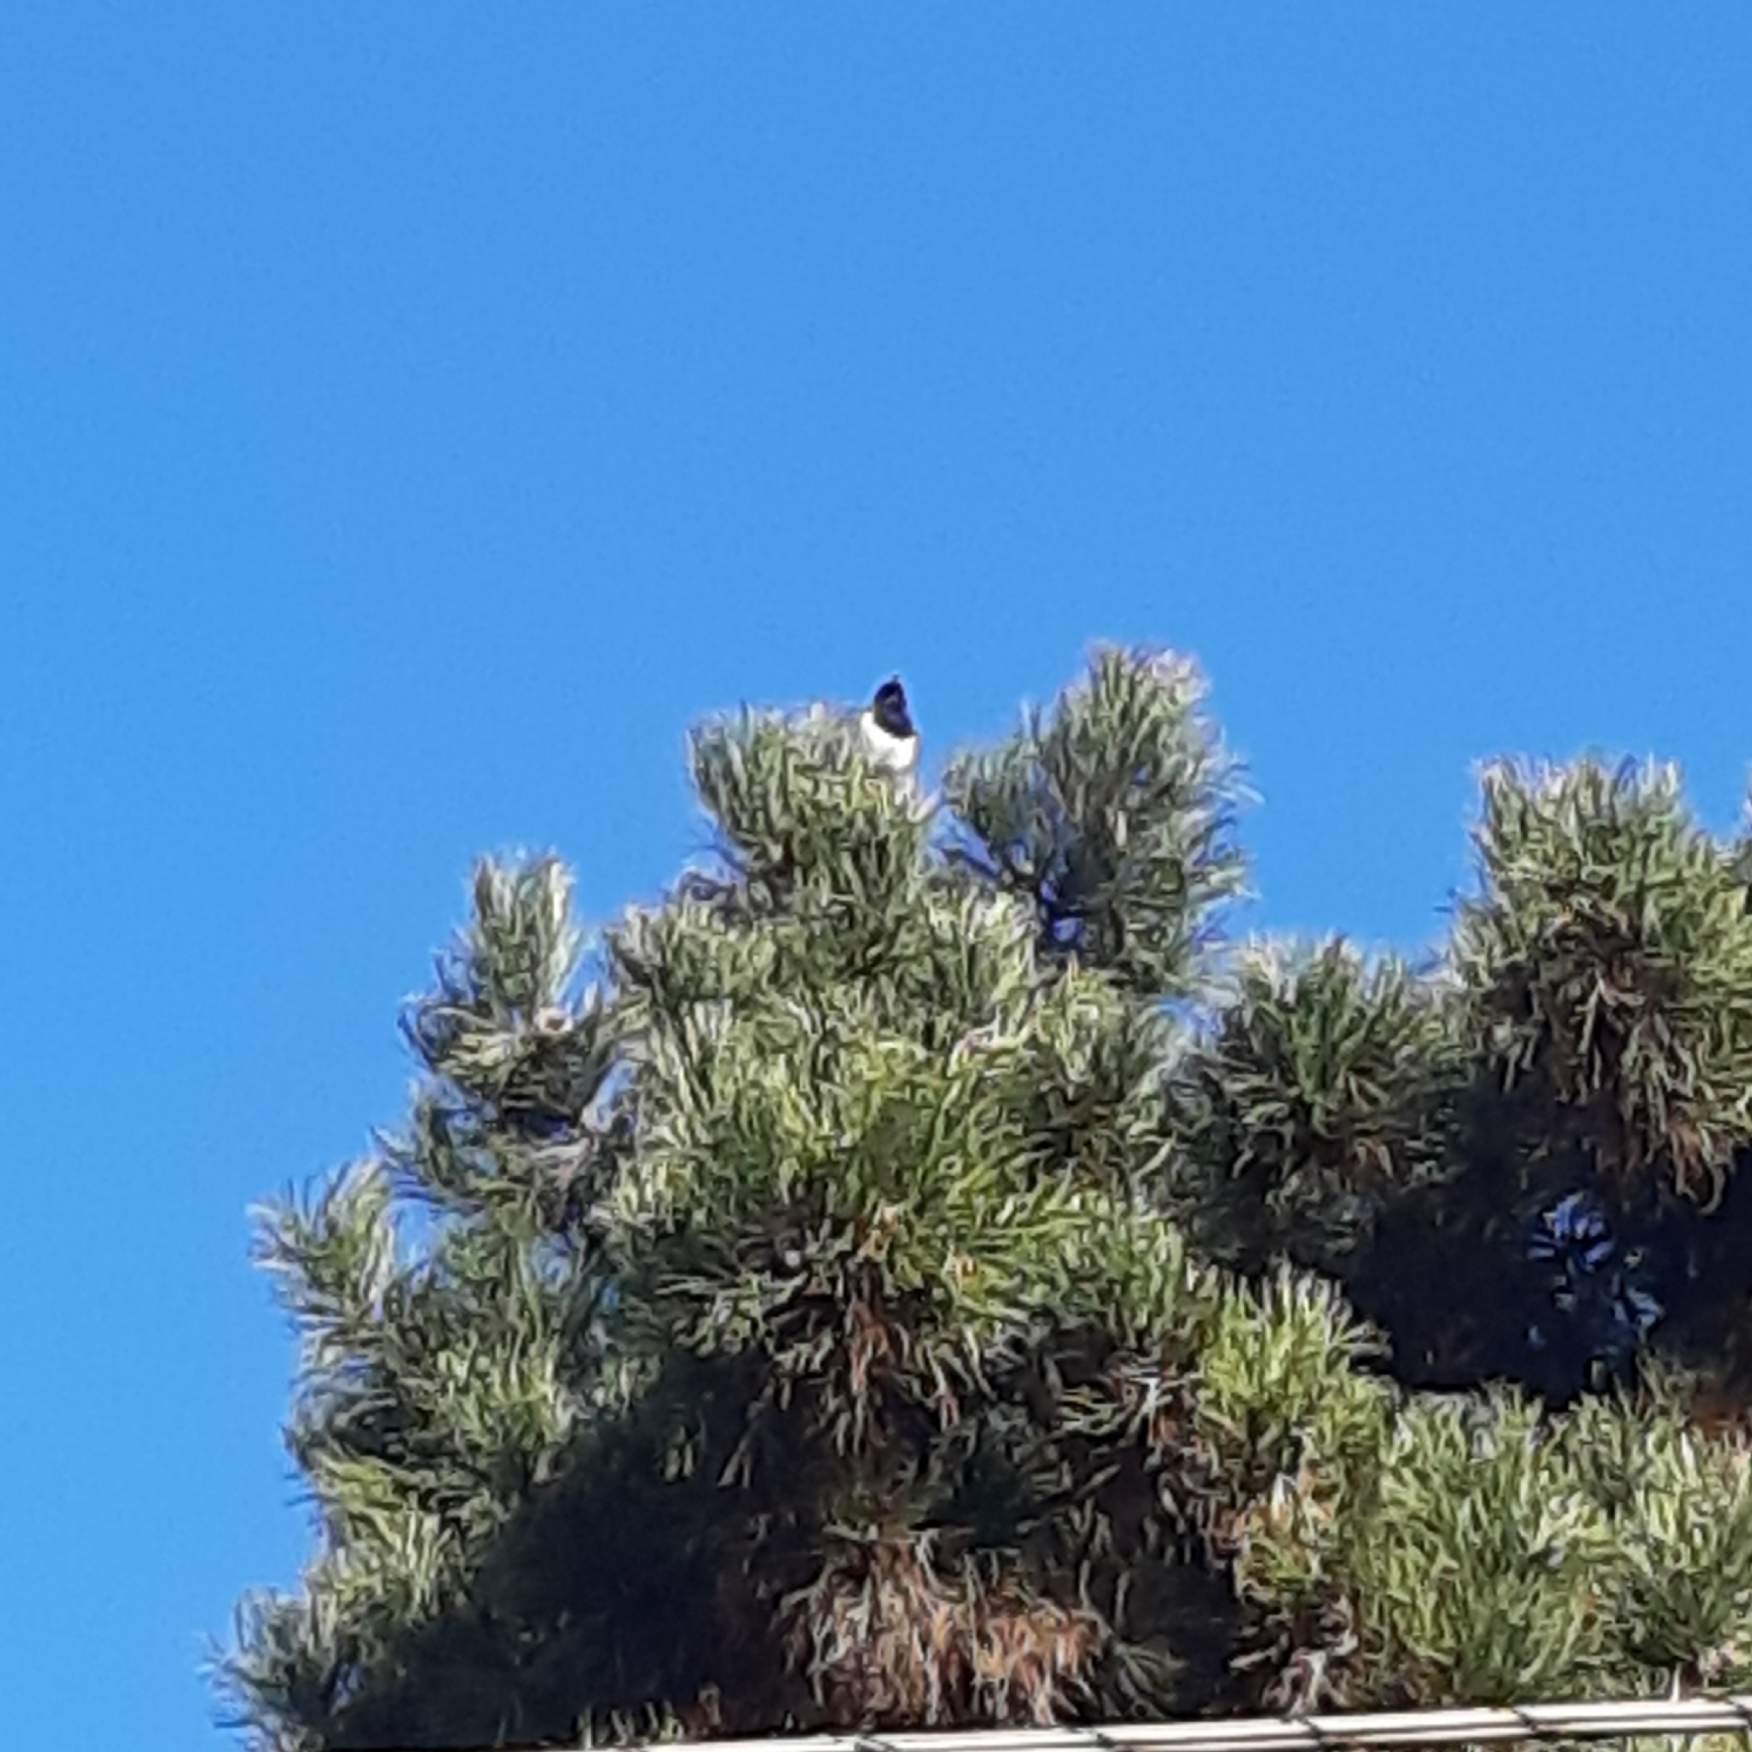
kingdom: Animalia
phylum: Chordata
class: Aves
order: Passeriformes
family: Corvidae
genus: Pica
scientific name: Pica pica
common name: Eurasian magpie
